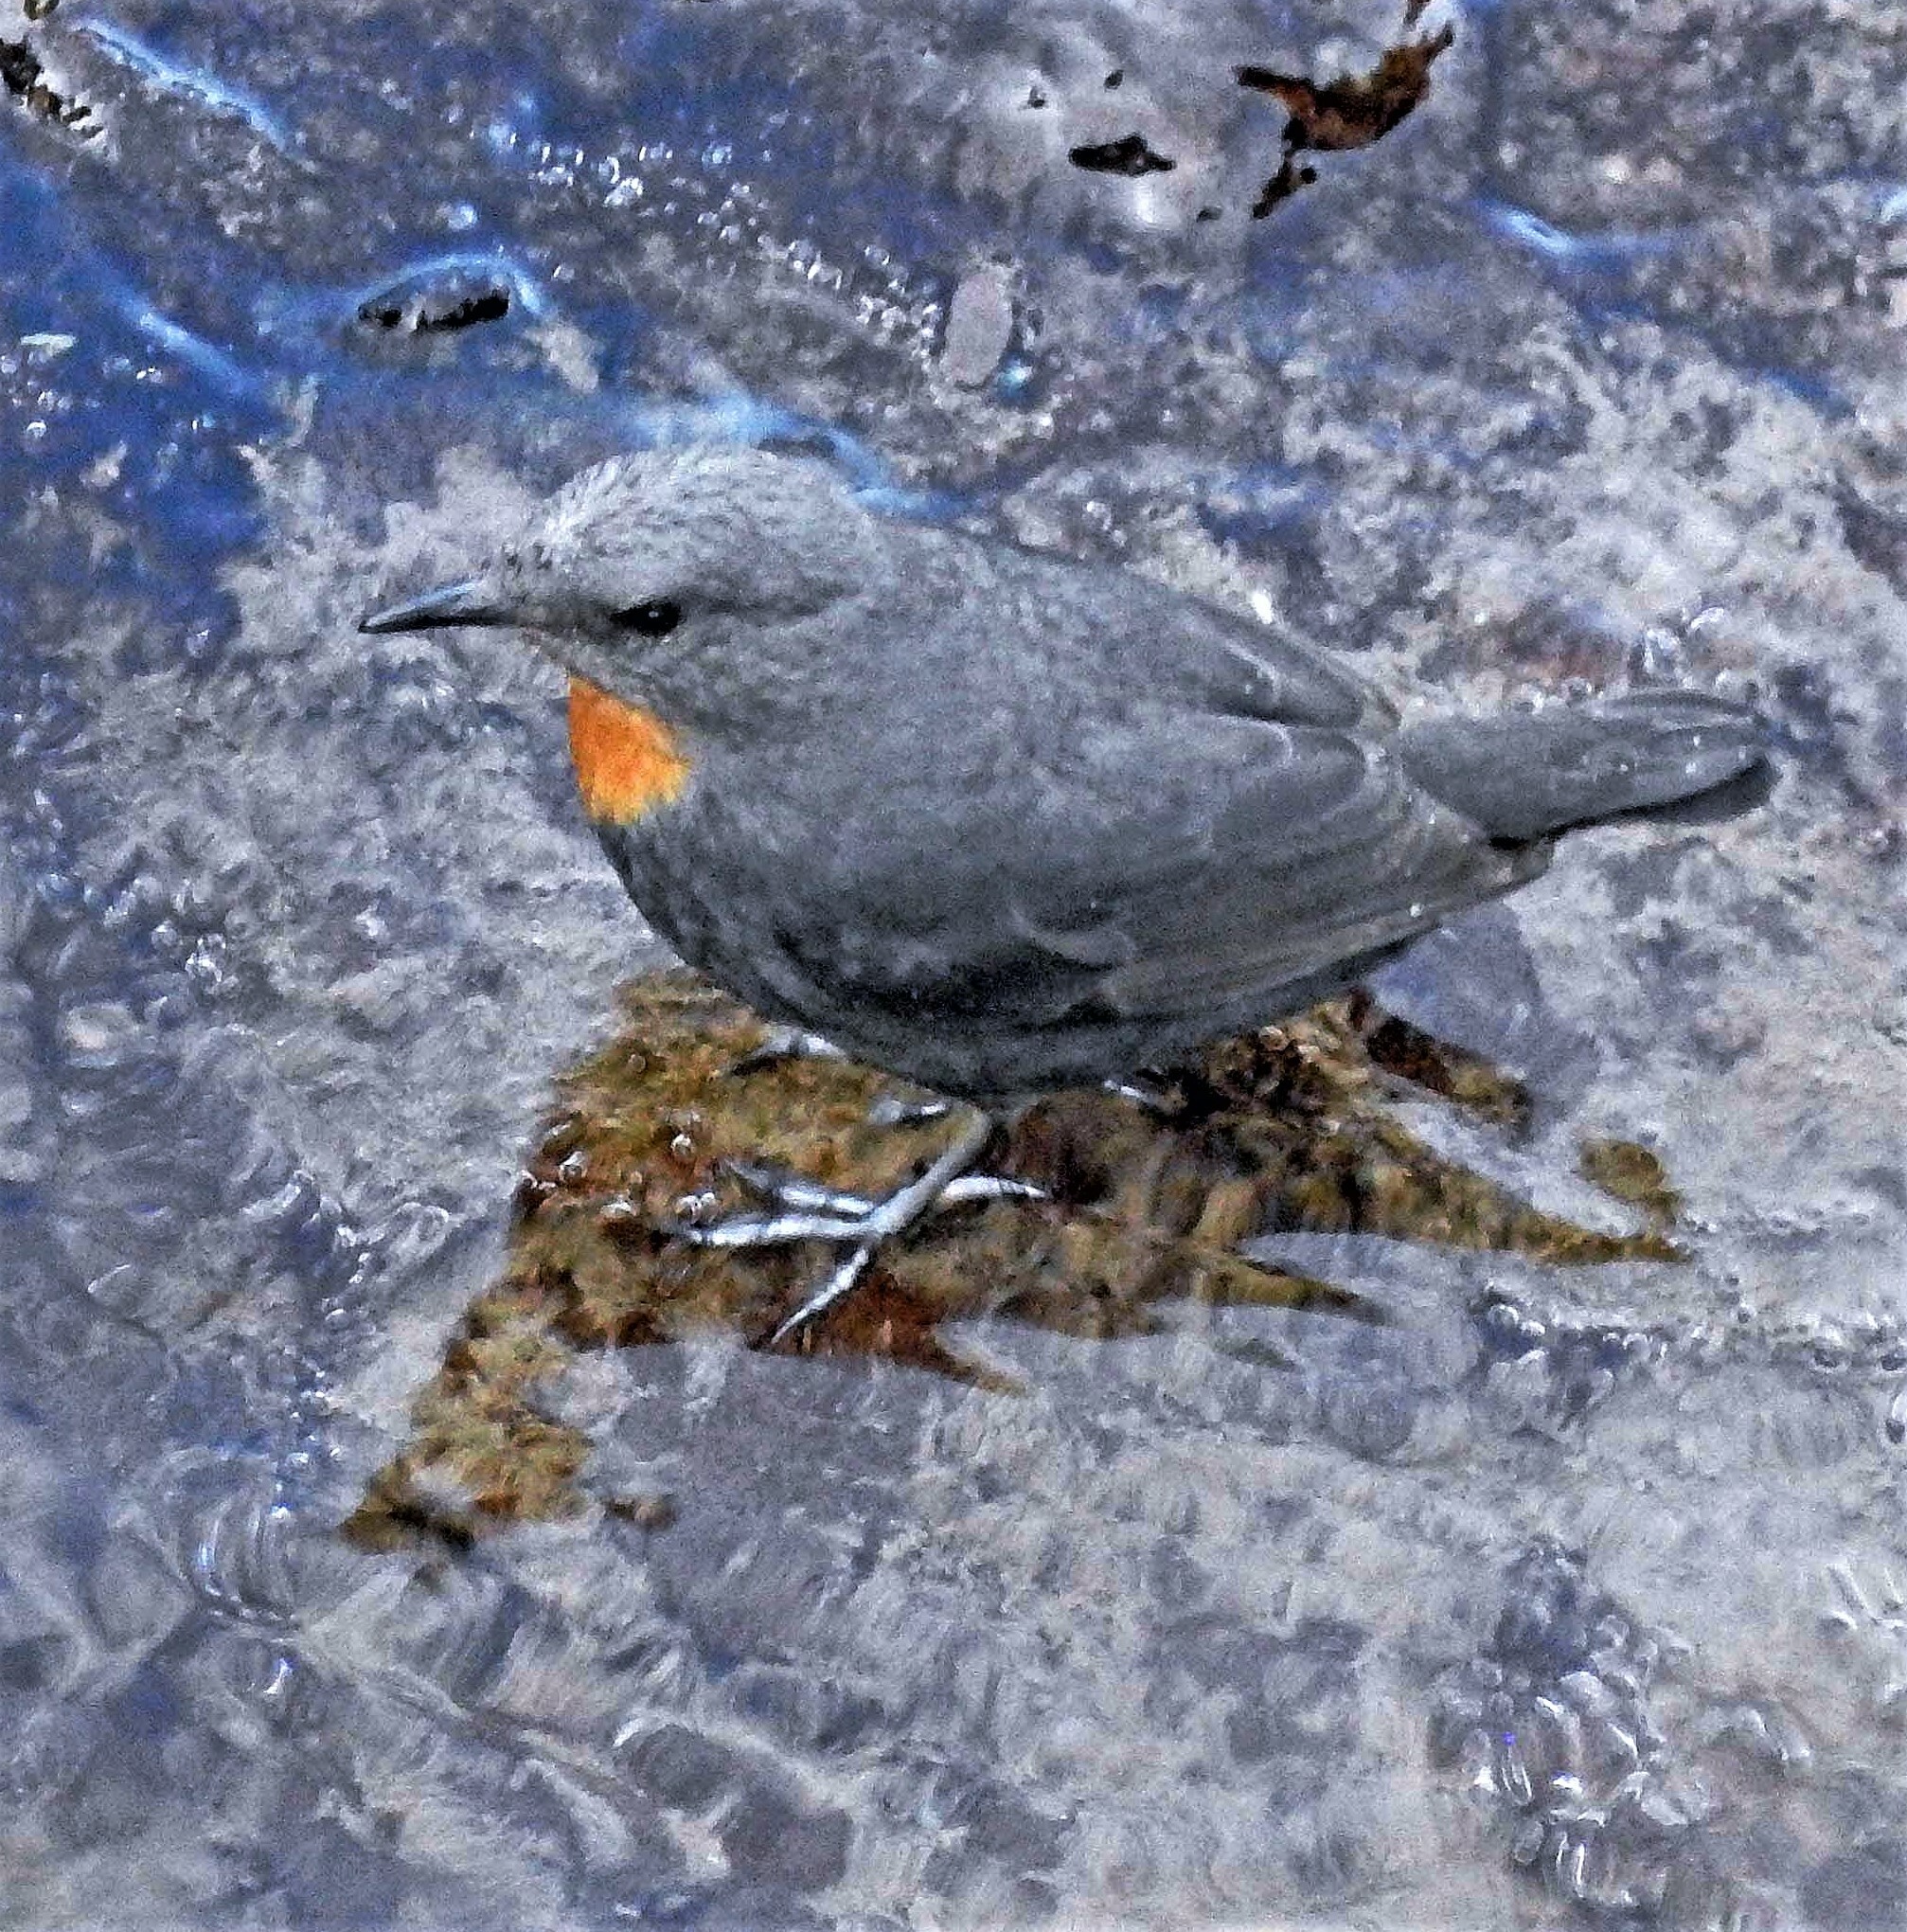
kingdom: Animalia
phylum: Chordata
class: Aves
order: Passeriformes
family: Cinclidae
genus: Cinclus
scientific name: Cinclus schulzii
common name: Rufous-throated dipper
